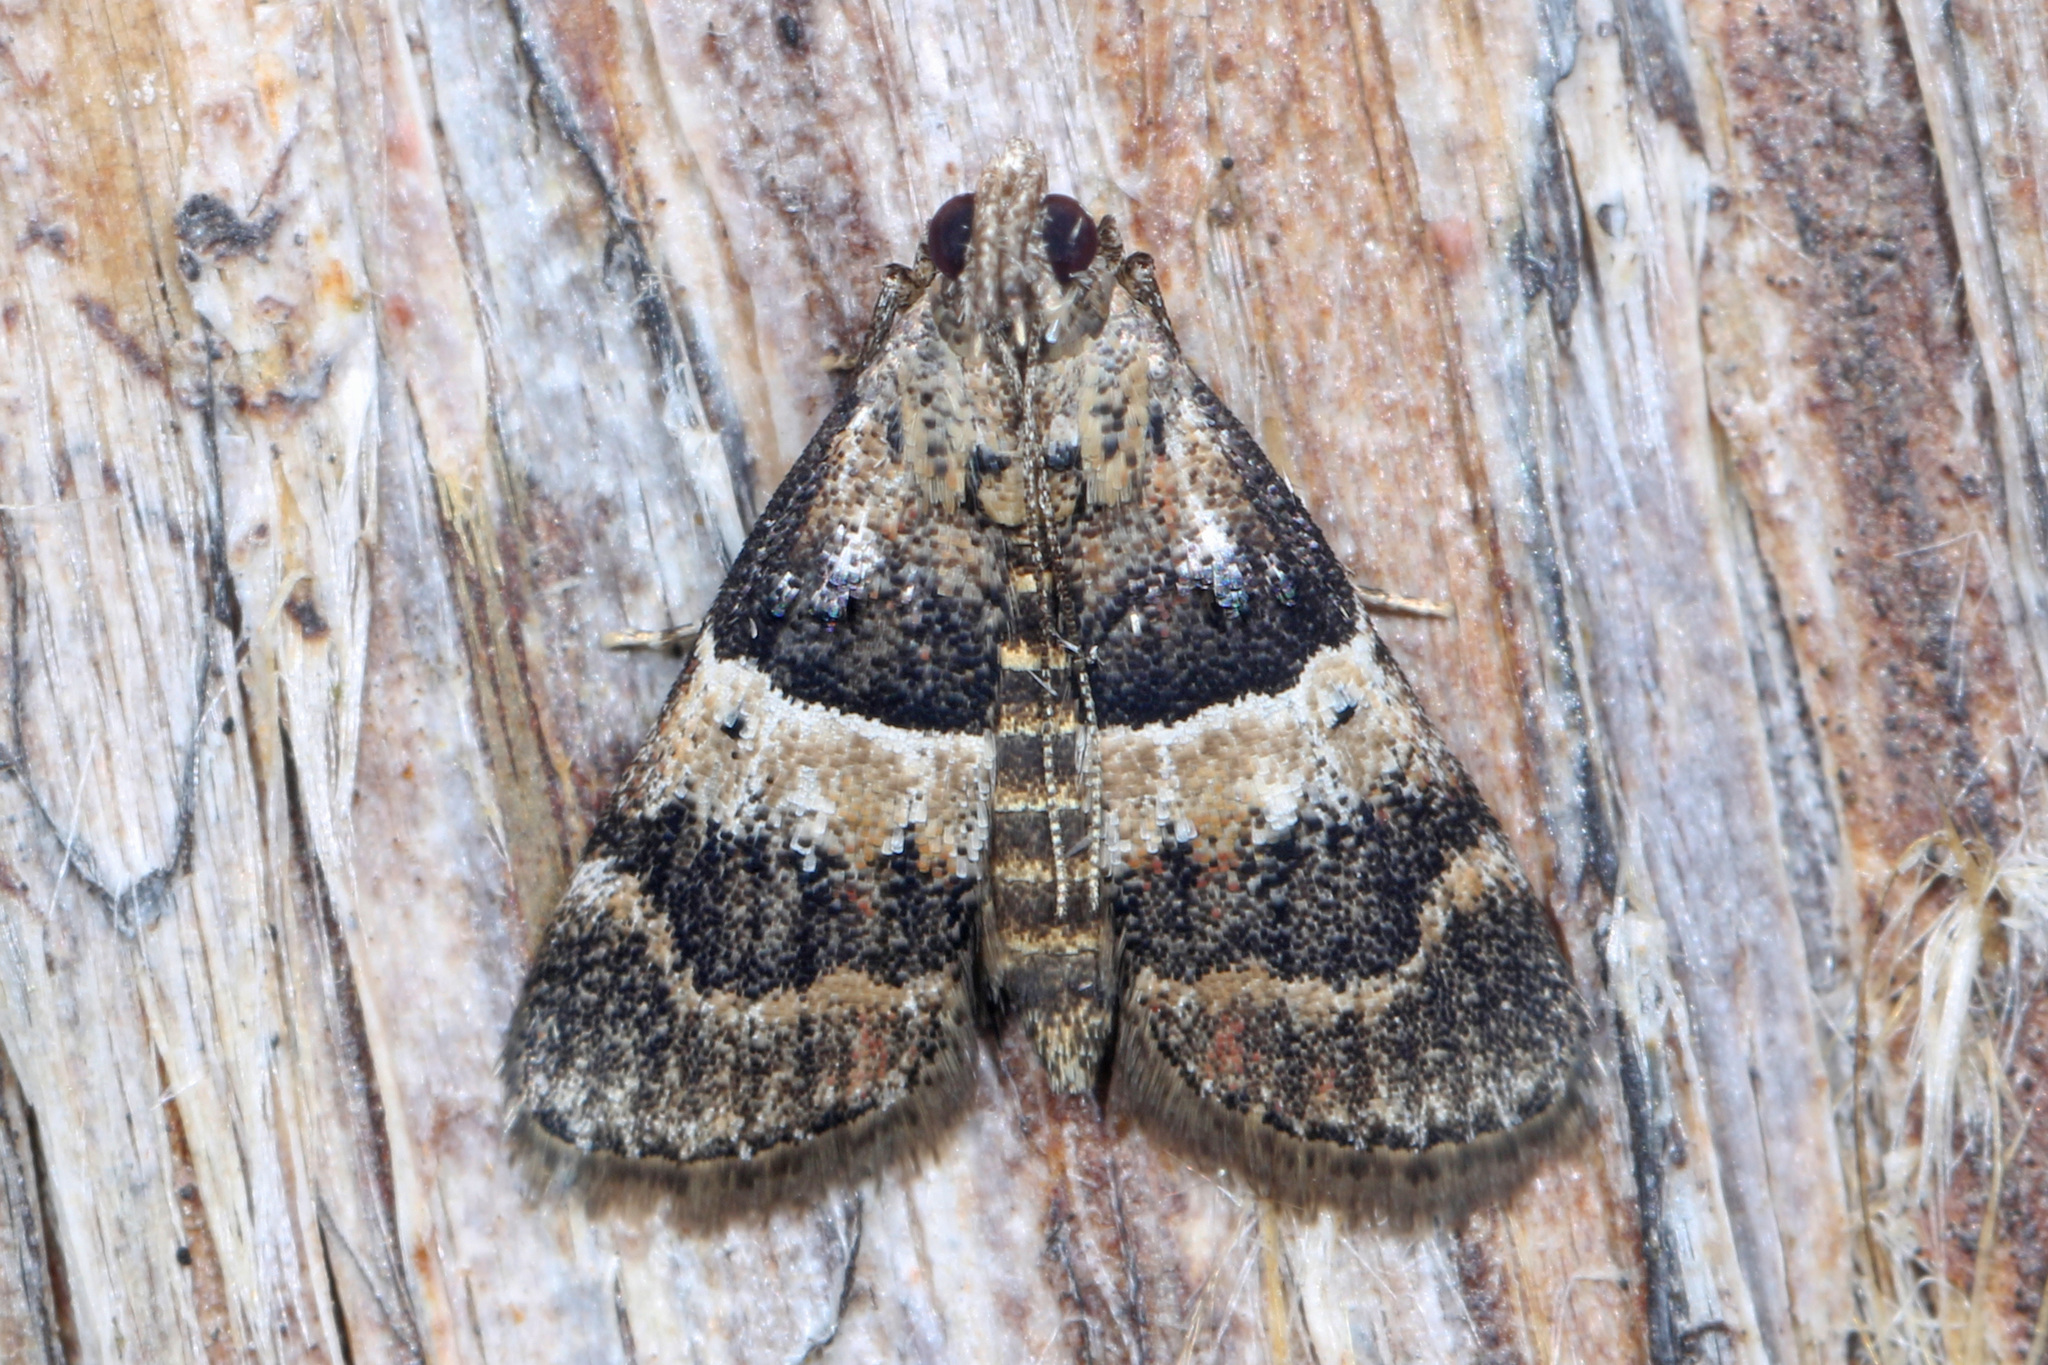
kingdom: Animalia
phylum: Arthropoda
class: Insecta
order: Lepidoptera
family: Pyralidae
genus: Pococera
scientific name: Pococera scortealis
